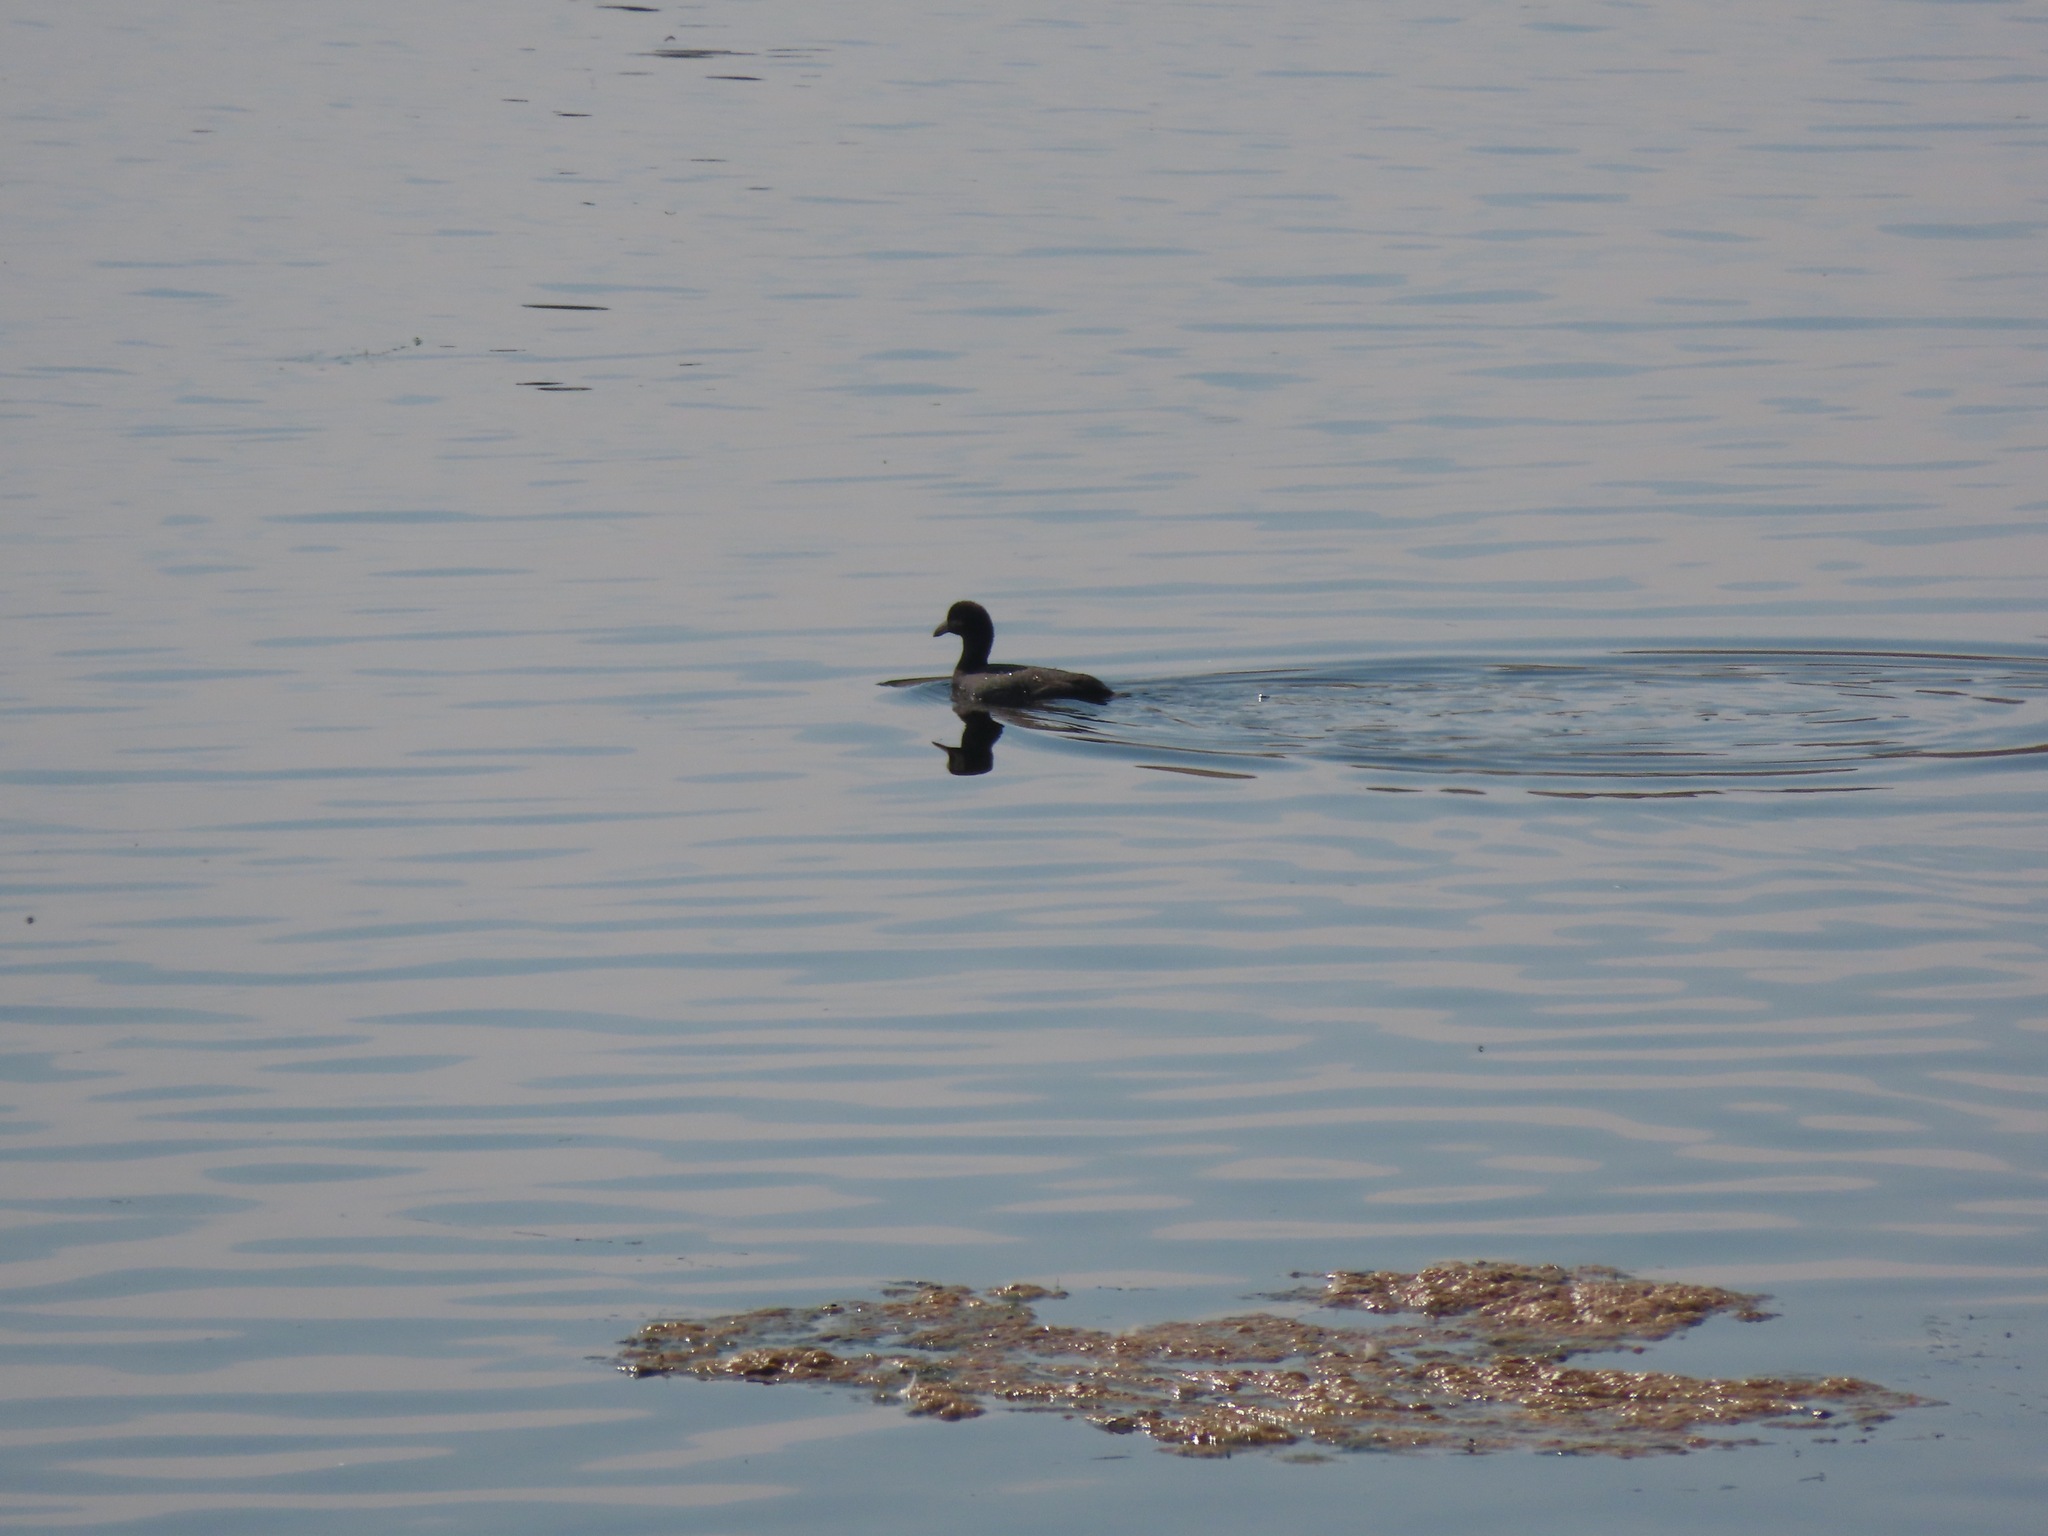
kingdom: Animalia
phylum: Chordata
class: Aves
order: Gruiformes
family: Rallidae
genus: Fulica
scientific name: Fulica americana
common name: American coot
